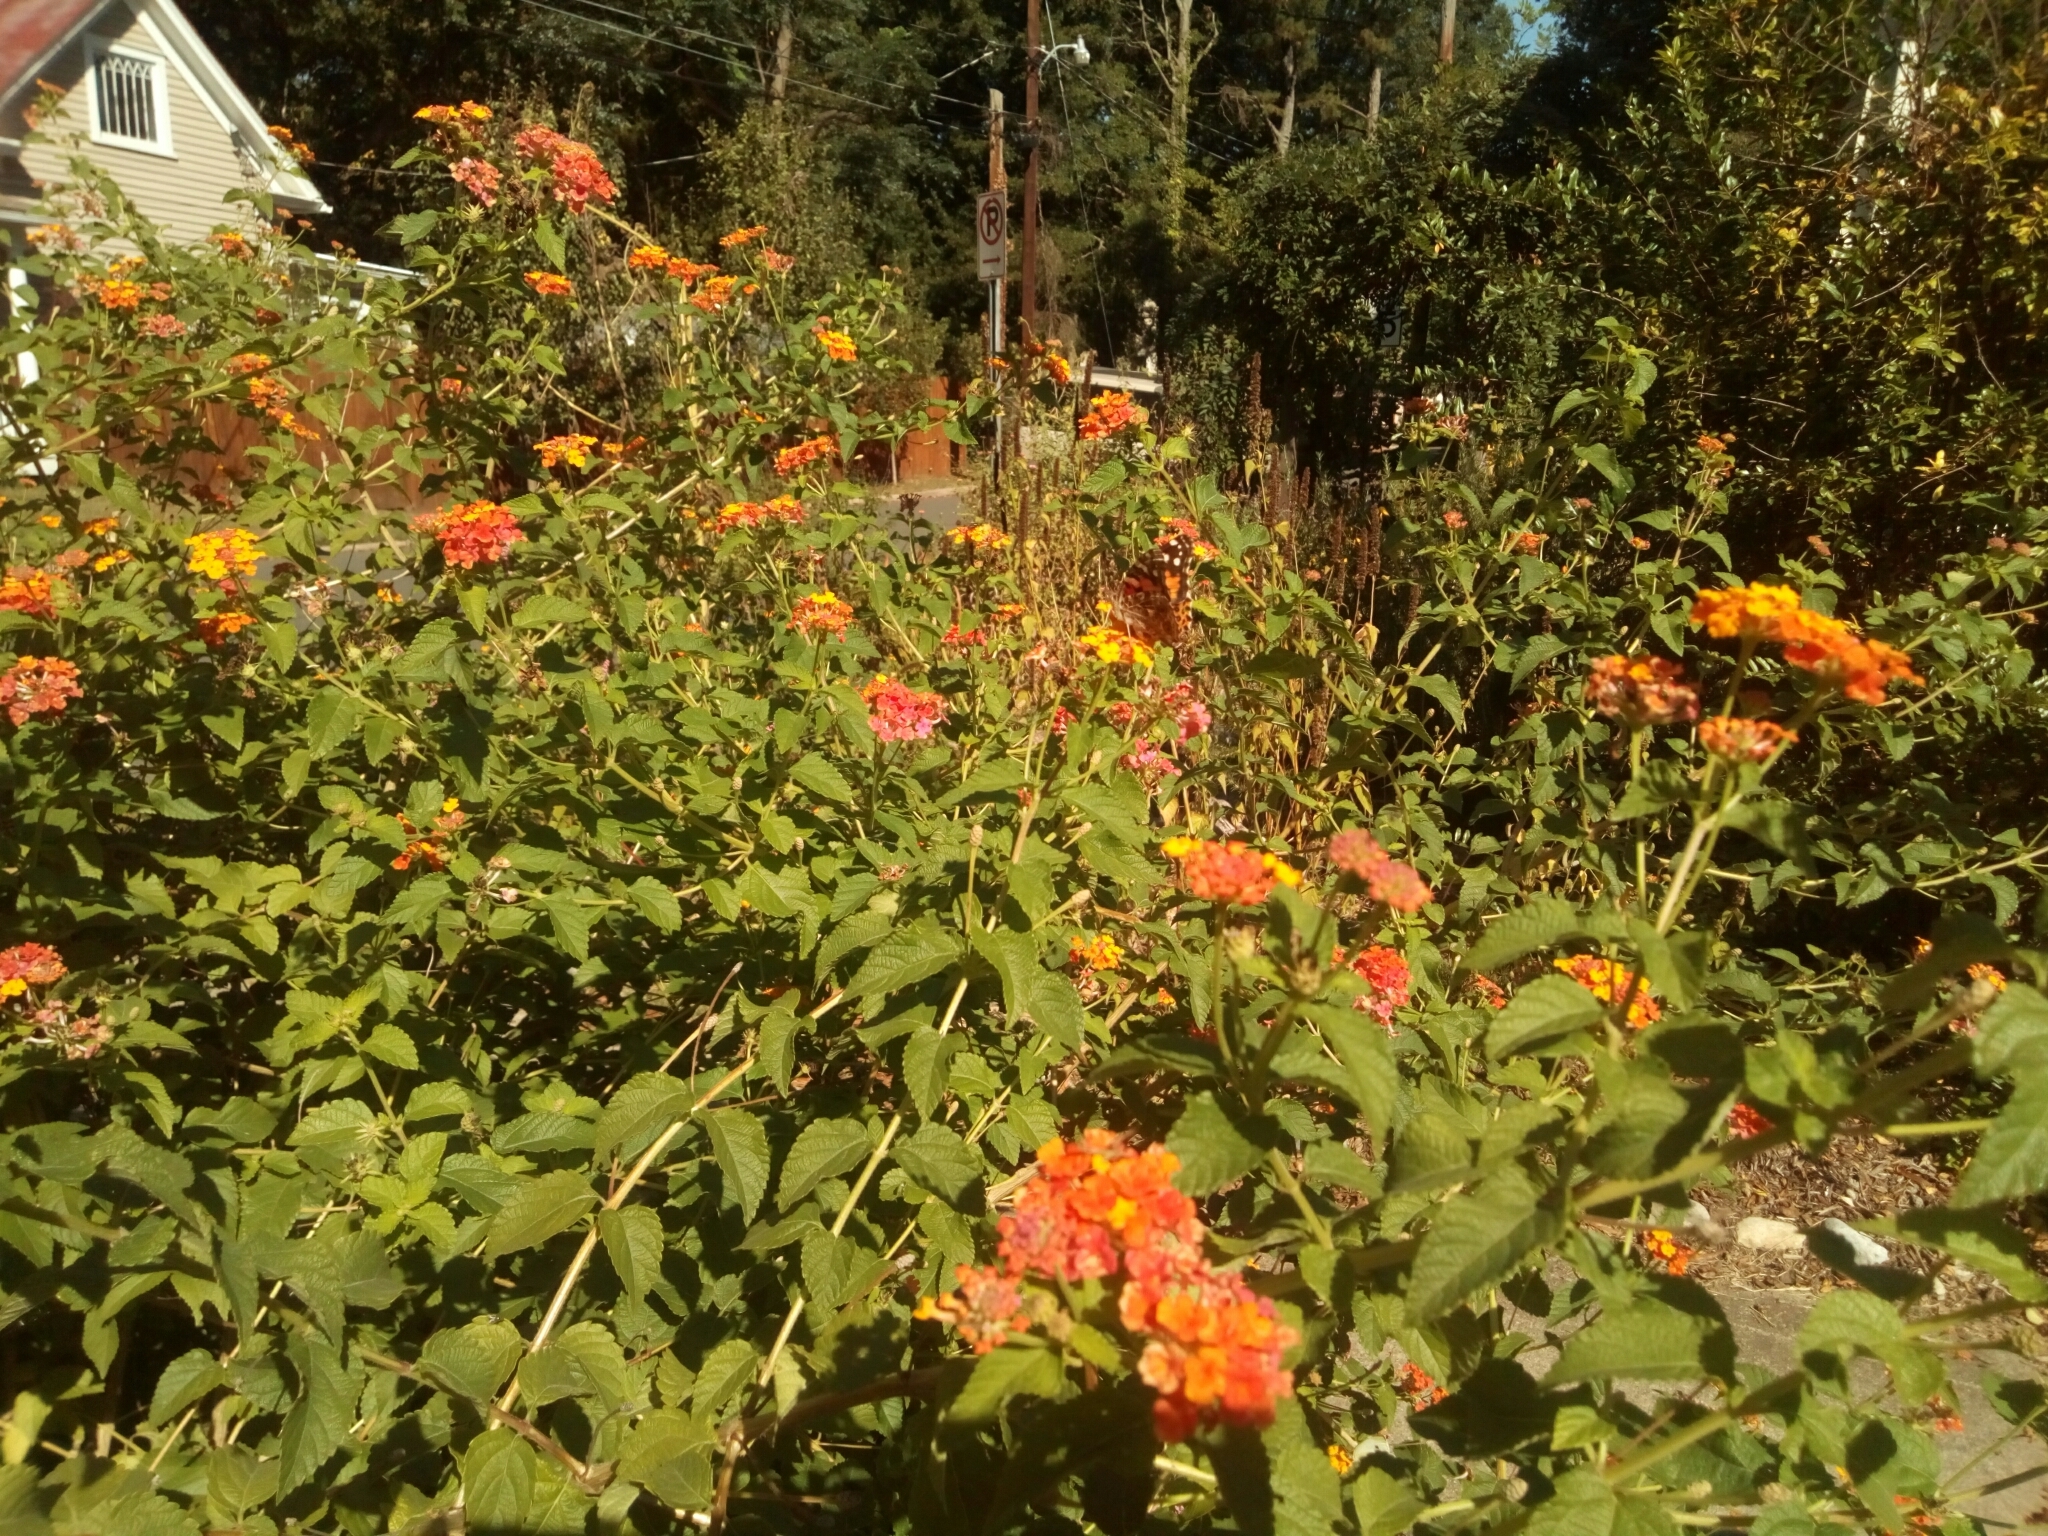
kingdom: Animalia
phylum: Arthropoda
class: Insecta
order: Lepidoptera
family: Nymphalidae
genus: Vanessa
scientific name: Vanessa cardui
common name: Painted lady
